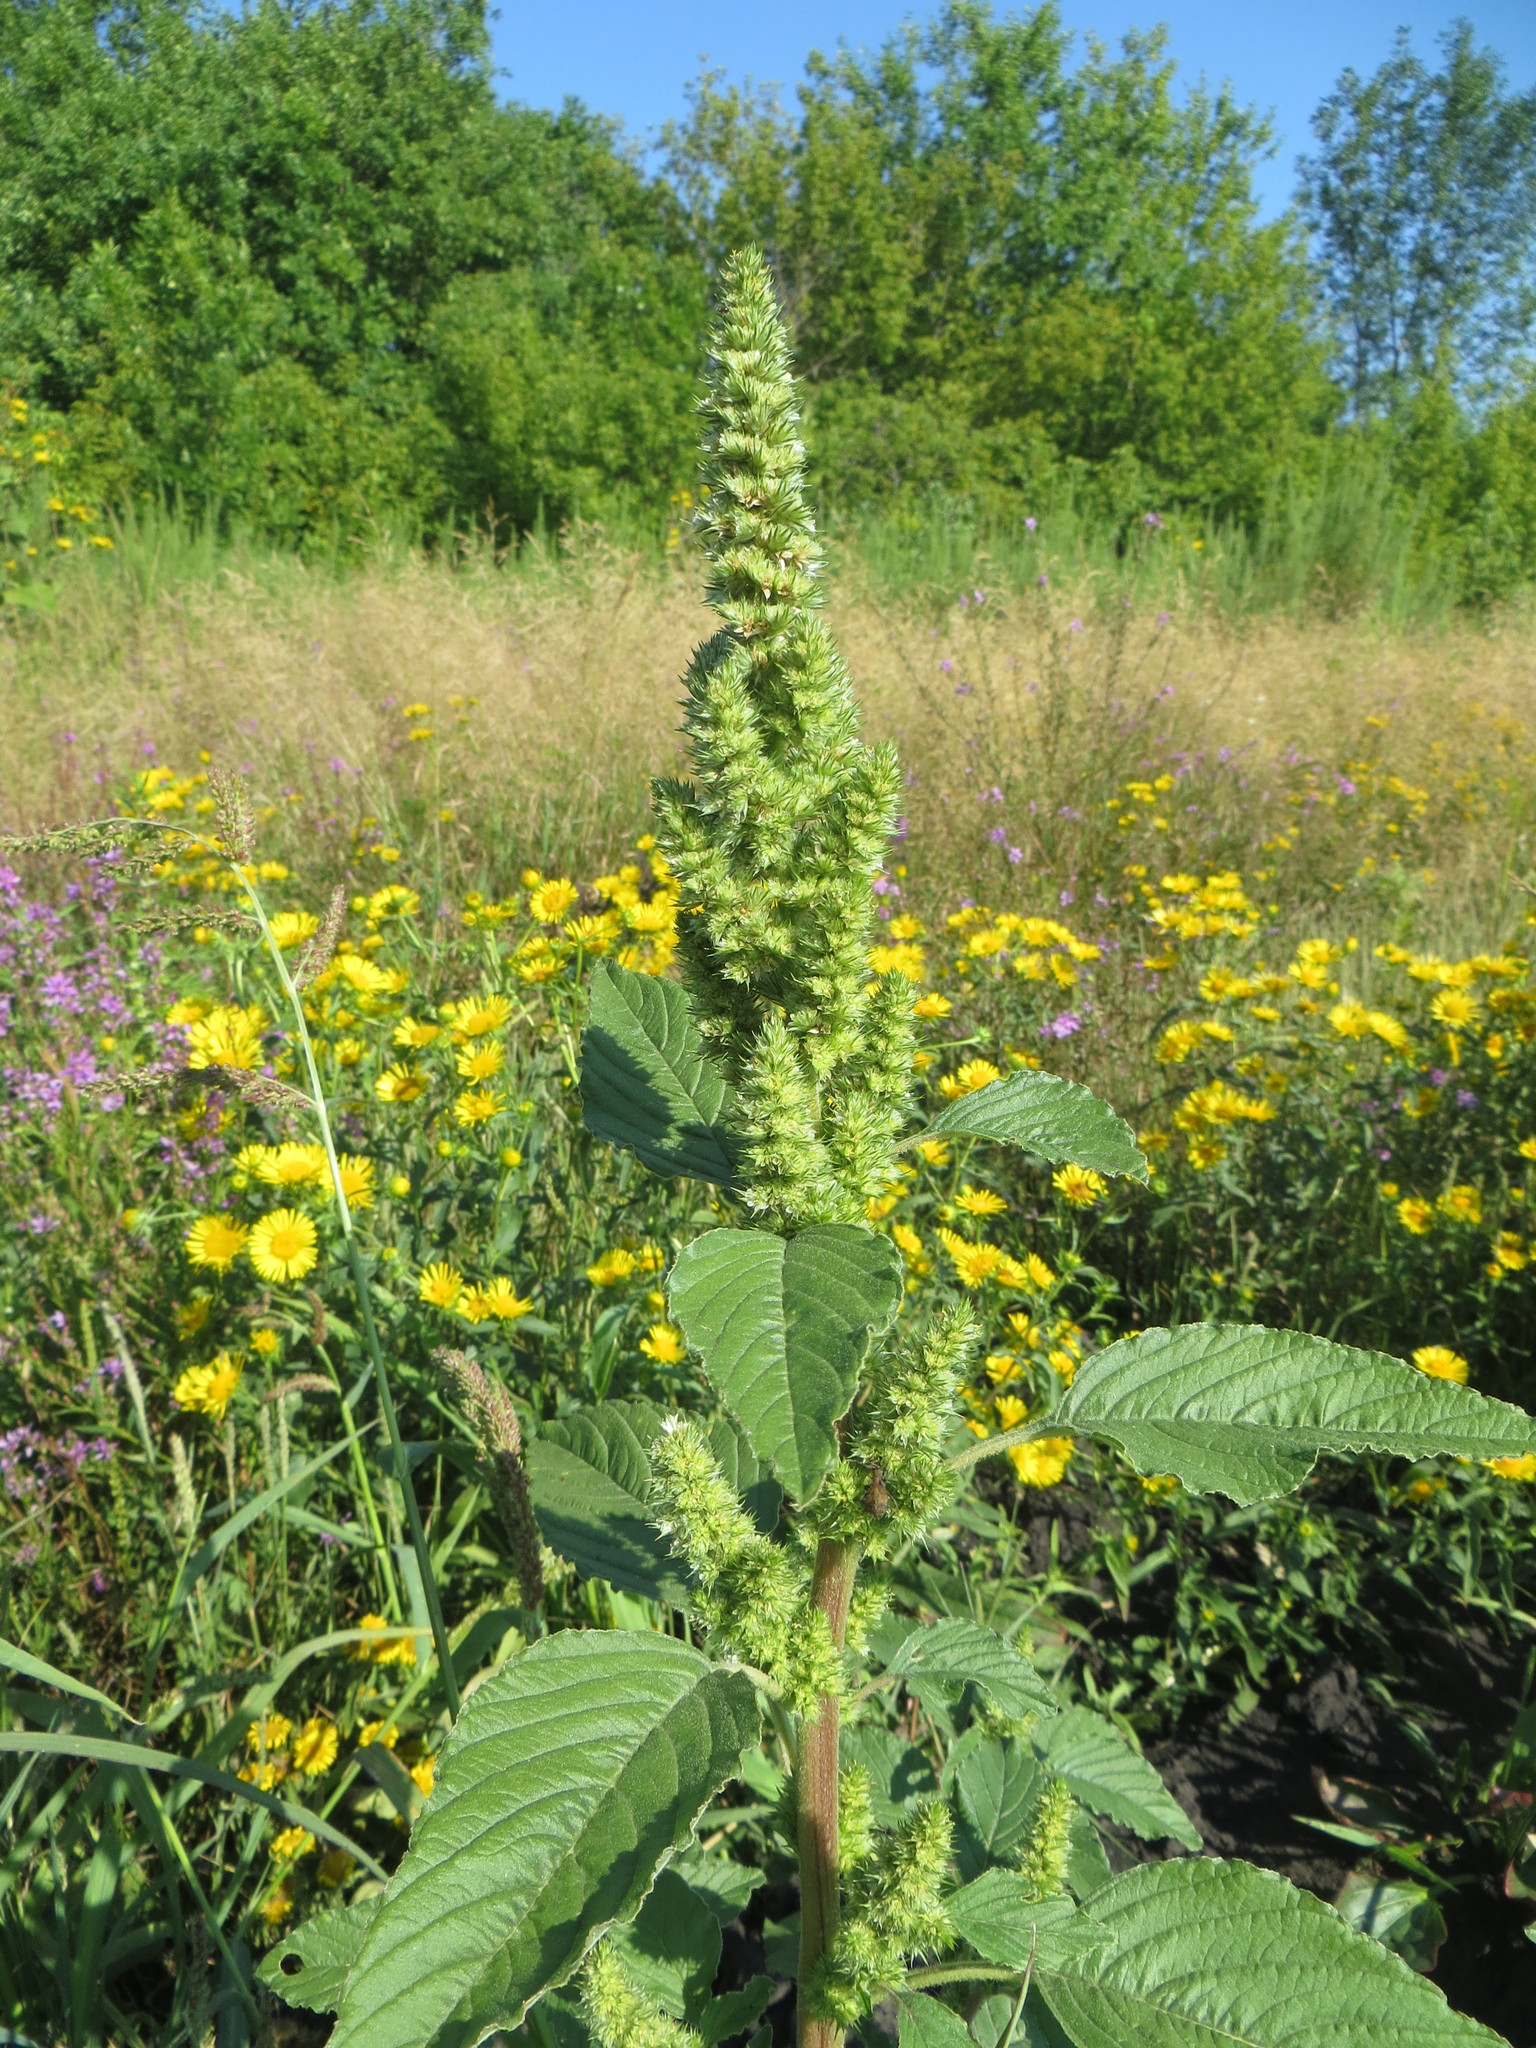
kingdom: Plantae
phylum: Tracheophyta
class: Magnoliopsida
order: Caryophyllales
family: Amaranthaceae
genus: Amaranthus
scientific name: Amaranthus retroflexus
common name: Redroot amaranth
